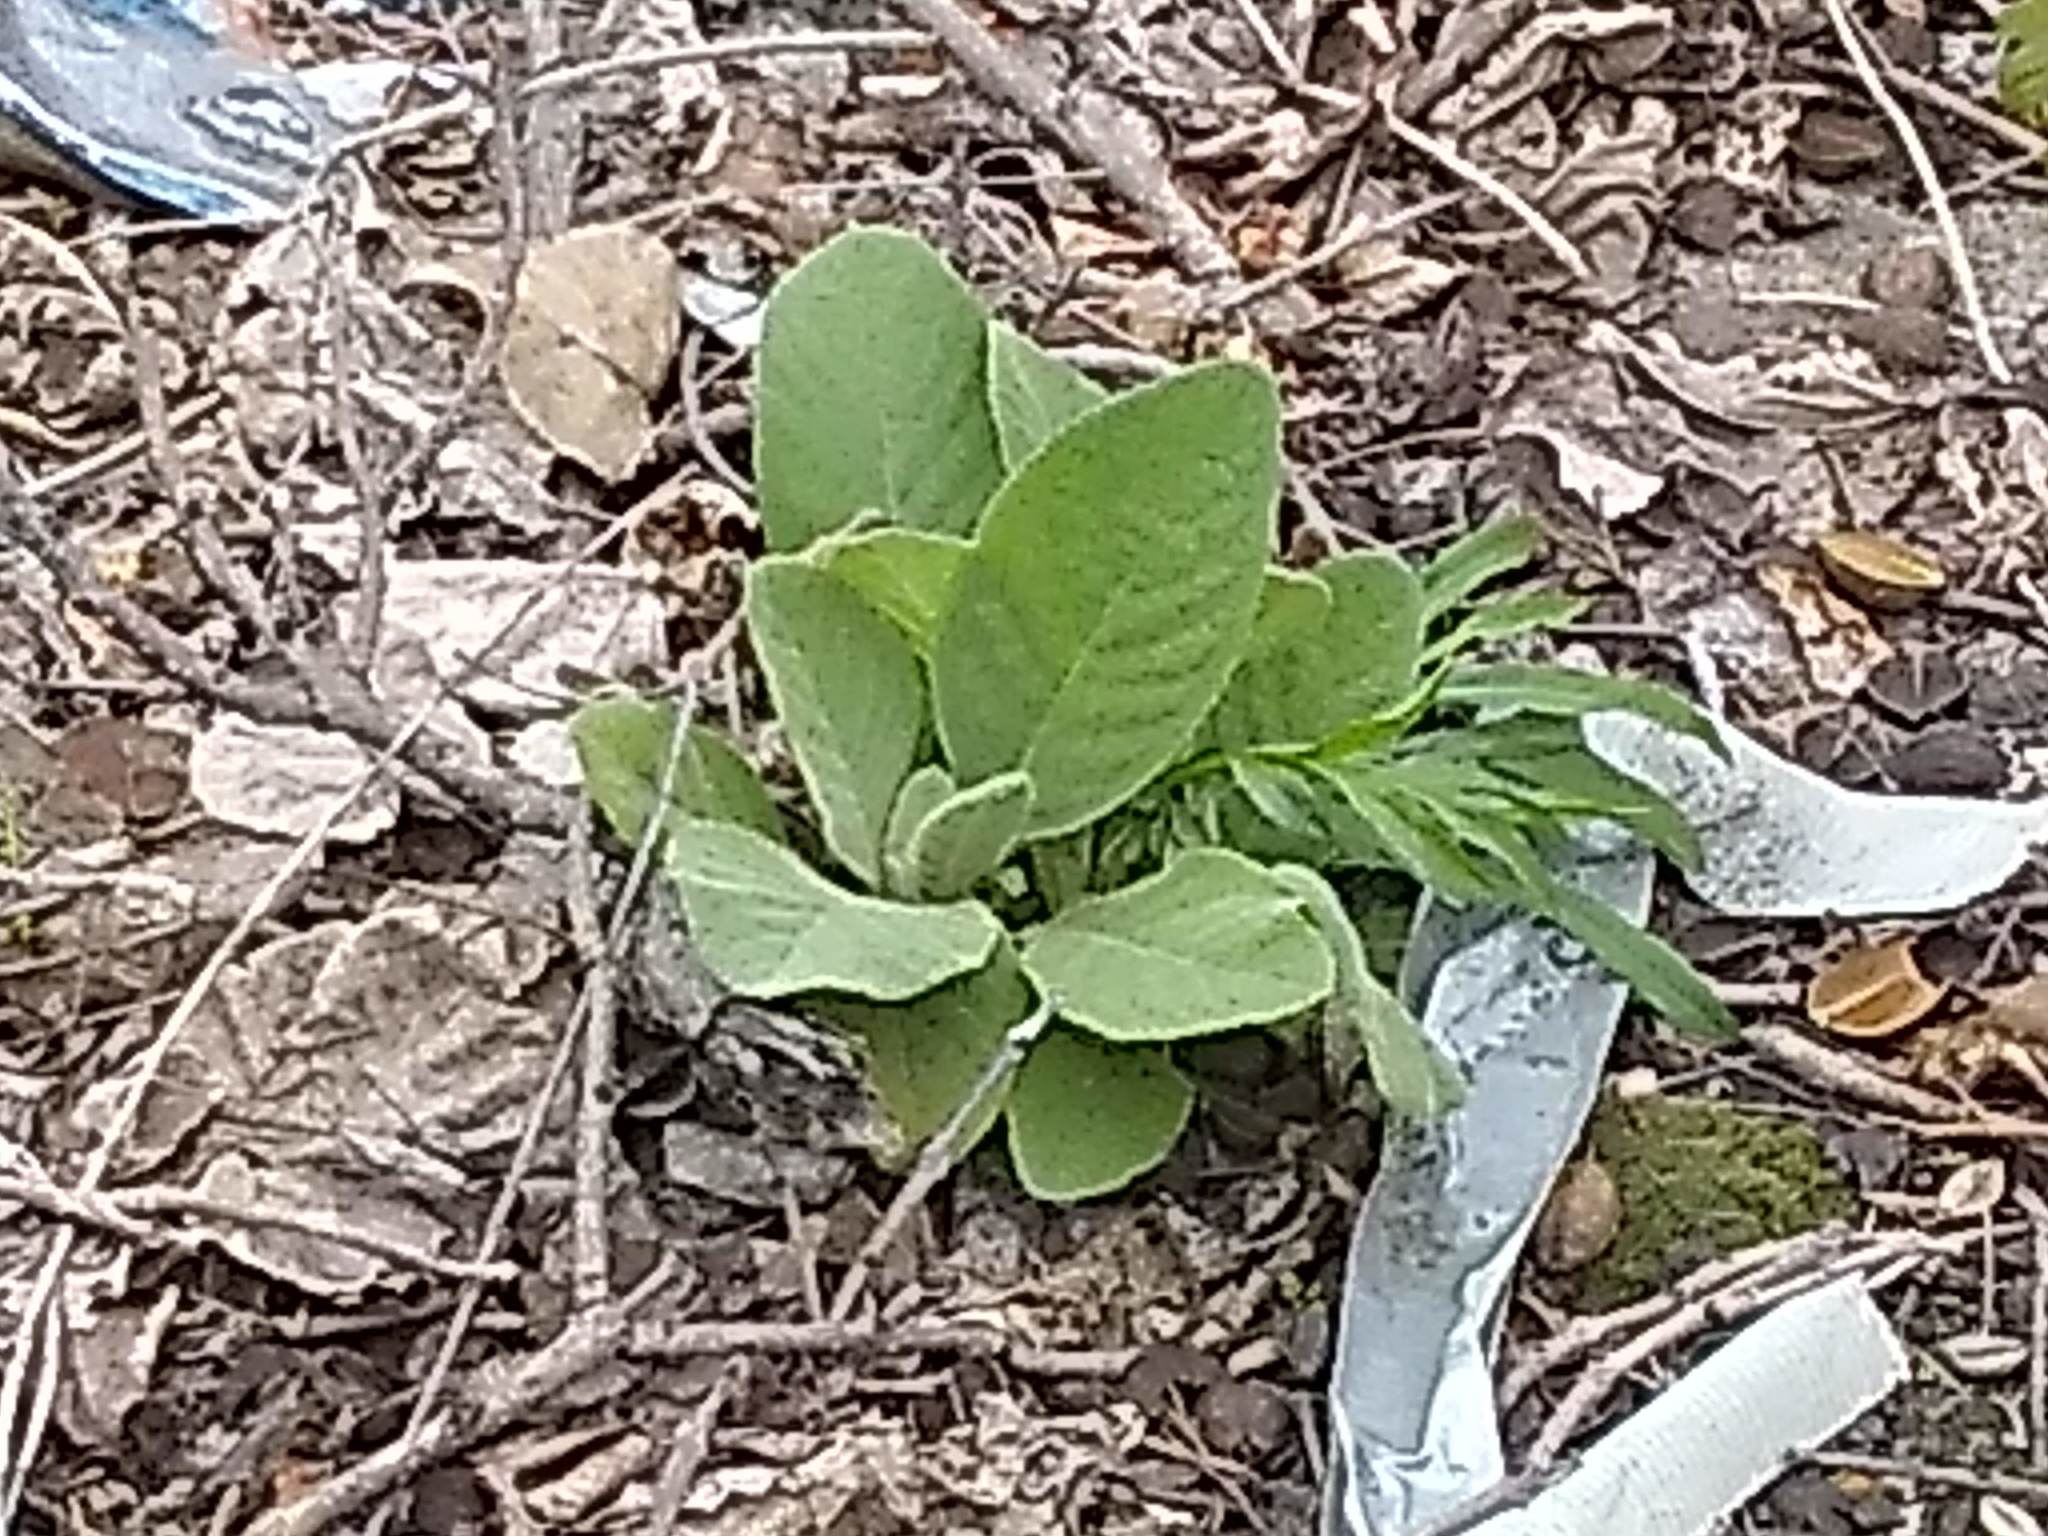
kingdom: Plantae
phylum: Tracheophyta
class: Magnoliopsida
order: Lamiales
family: Scrophulariaceae
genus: Verbascum
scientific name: Verbascum thapsus
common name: Common mullein
